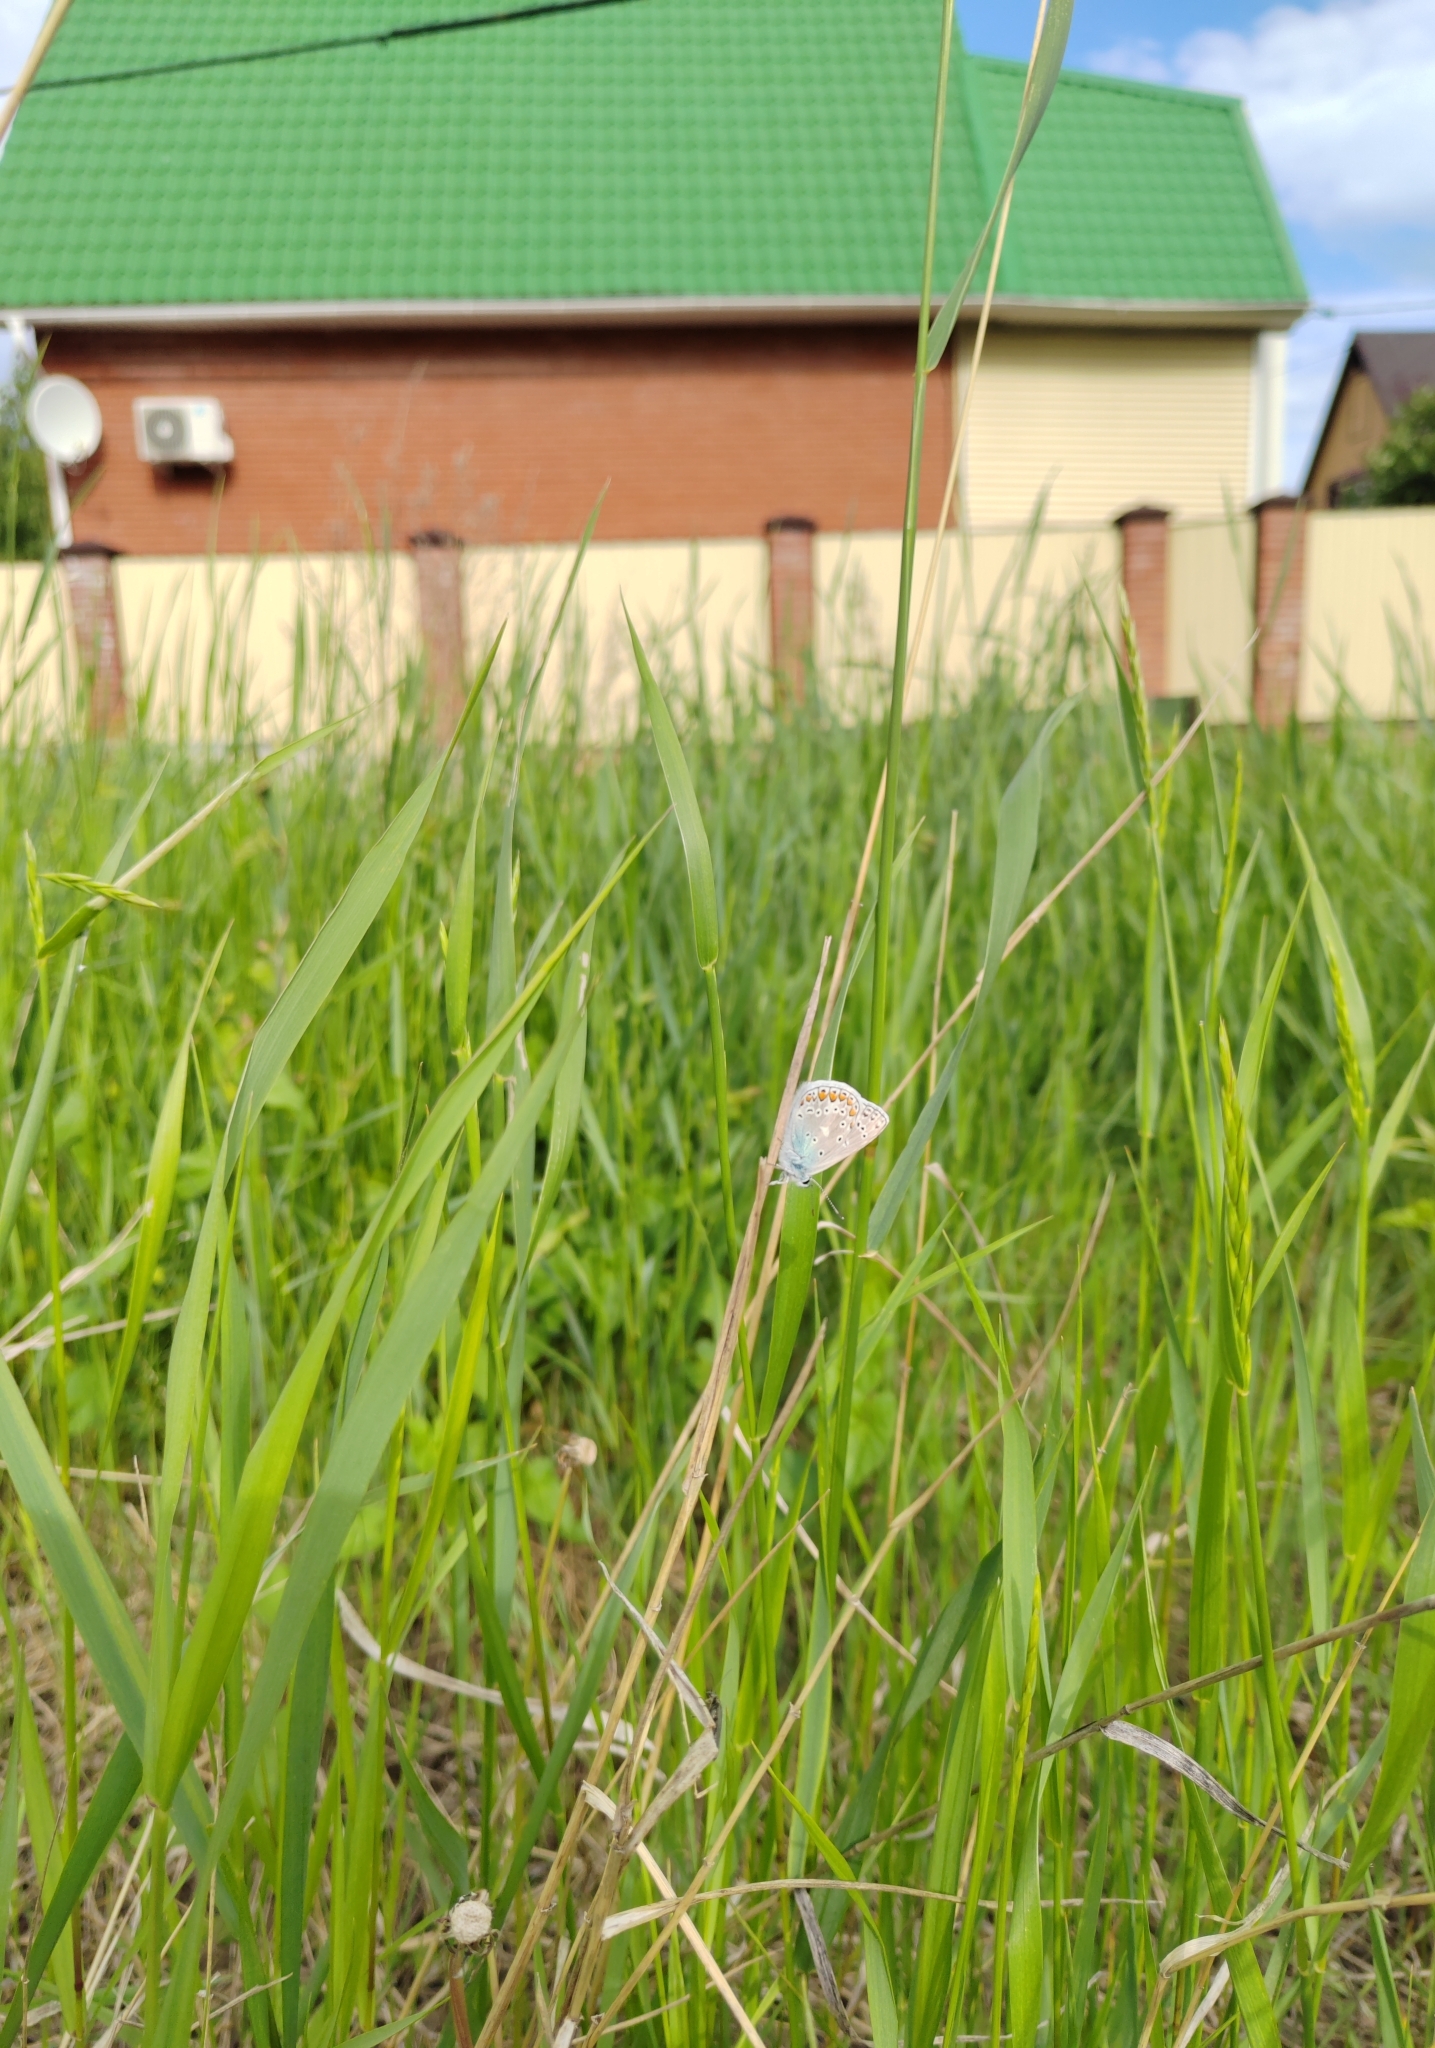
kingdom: Animalia
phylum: Arthropoda
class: Insecta
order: Lepidoptera
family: Lycaenidae
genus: Polyommatus
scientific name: Polyommatus icarus
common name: Common blue
